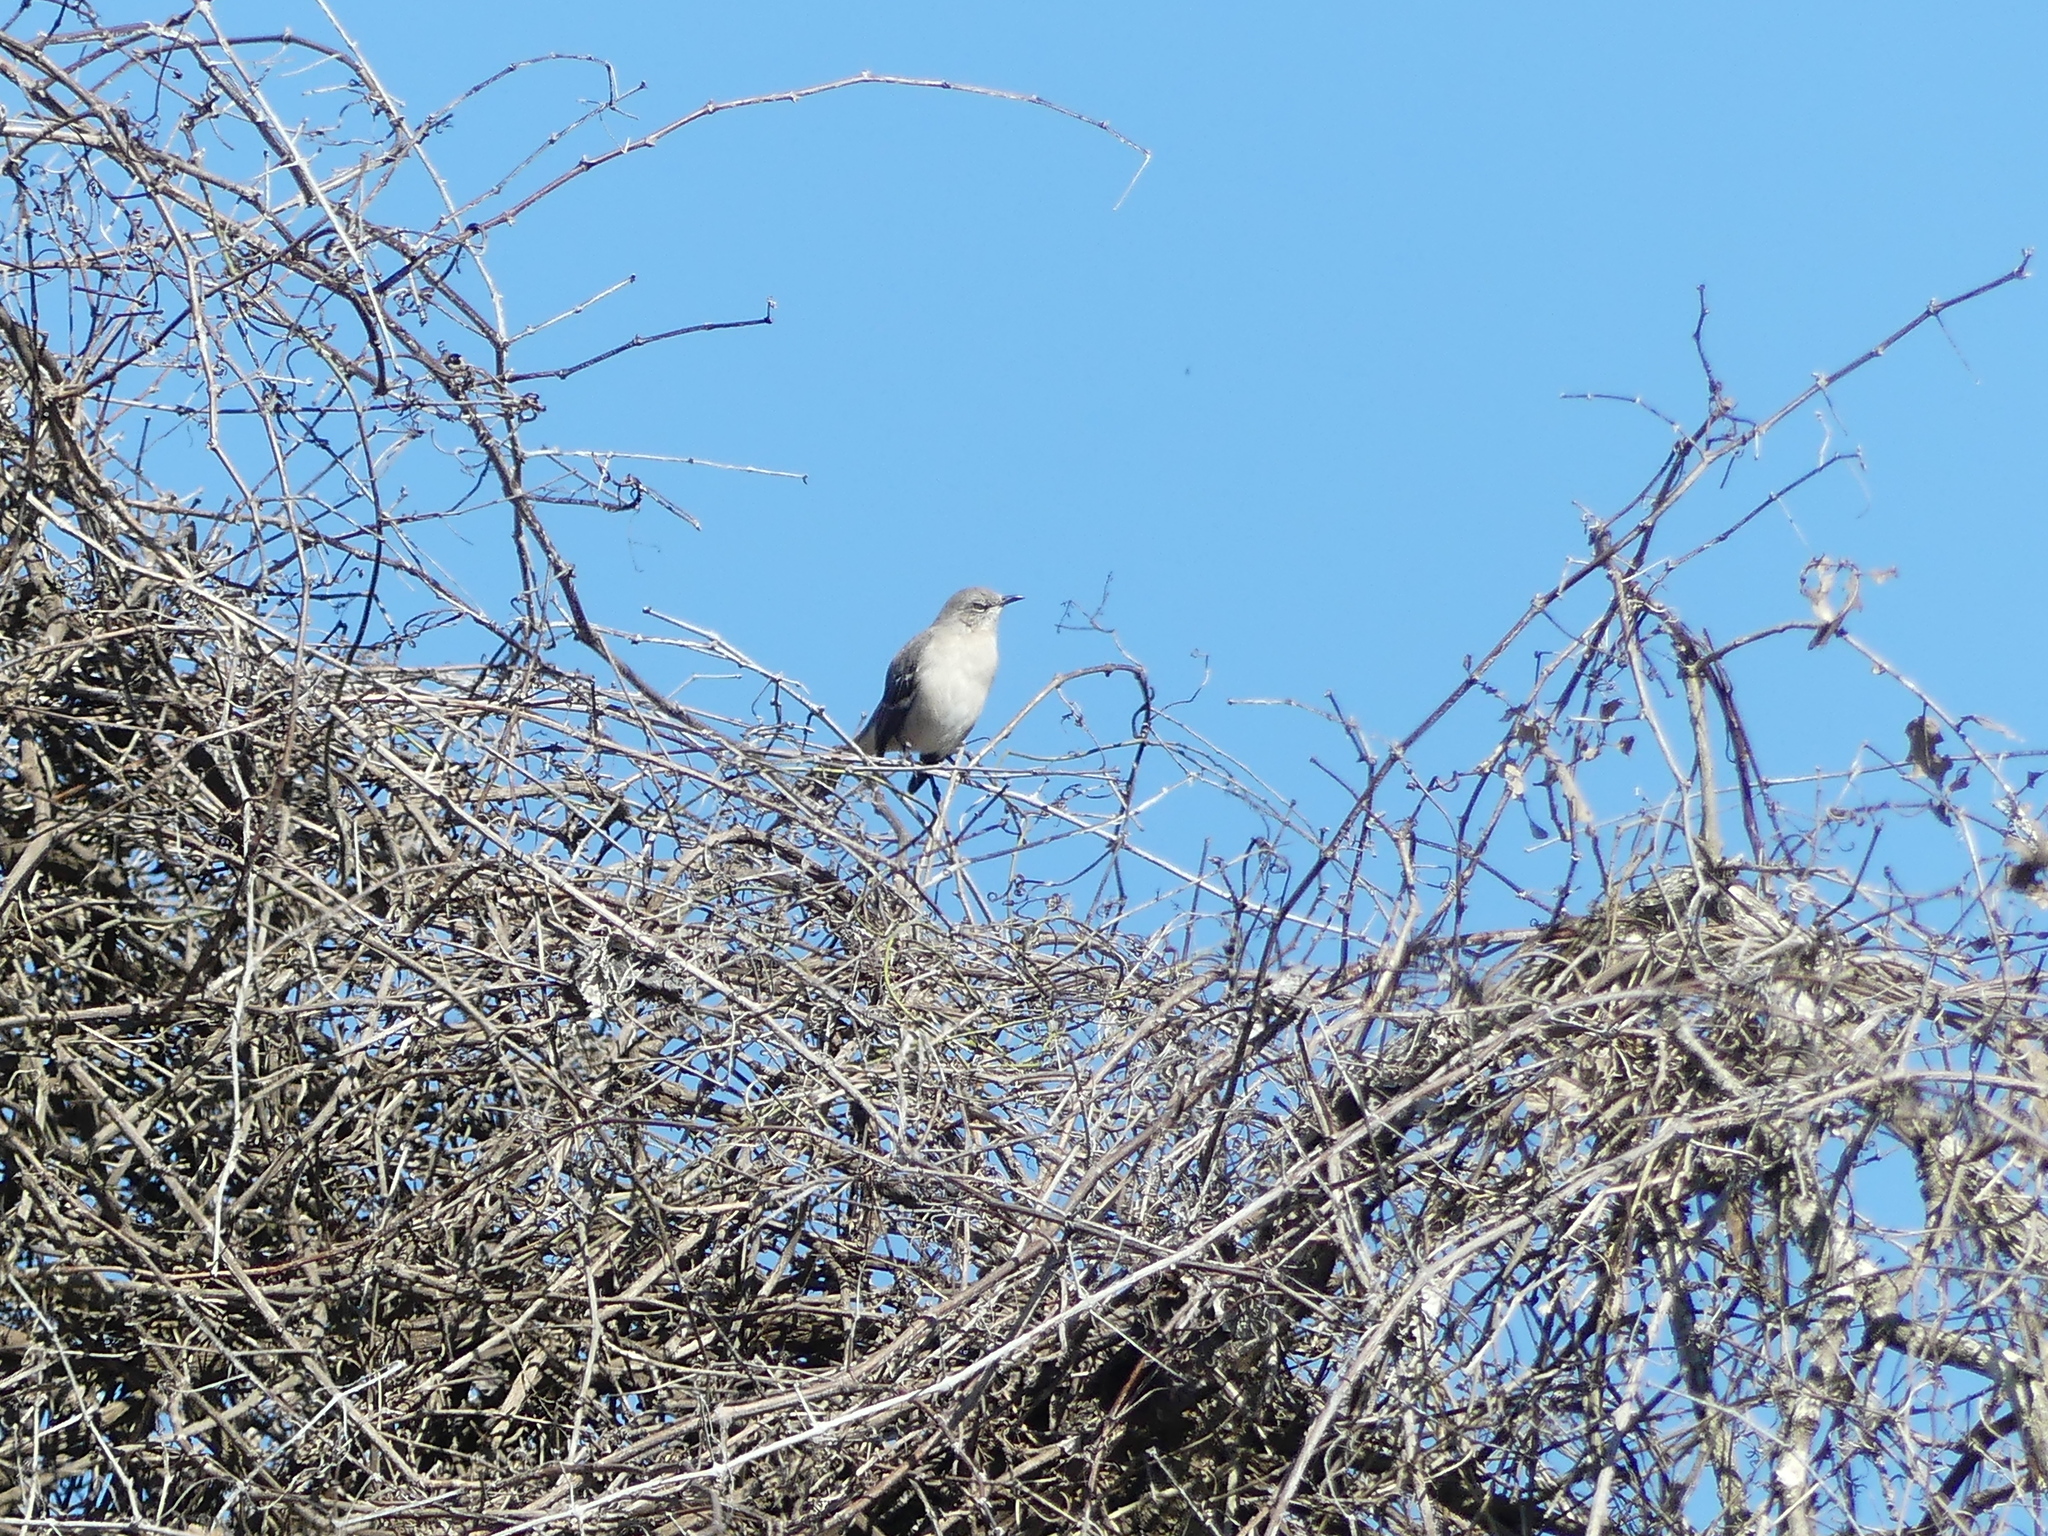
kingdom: Animalia
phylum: Chordata
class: Aves
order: Passeriformes
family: Mimidae
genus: Mimus
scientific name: Mimus polyglottos
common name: Northern mockingbird
